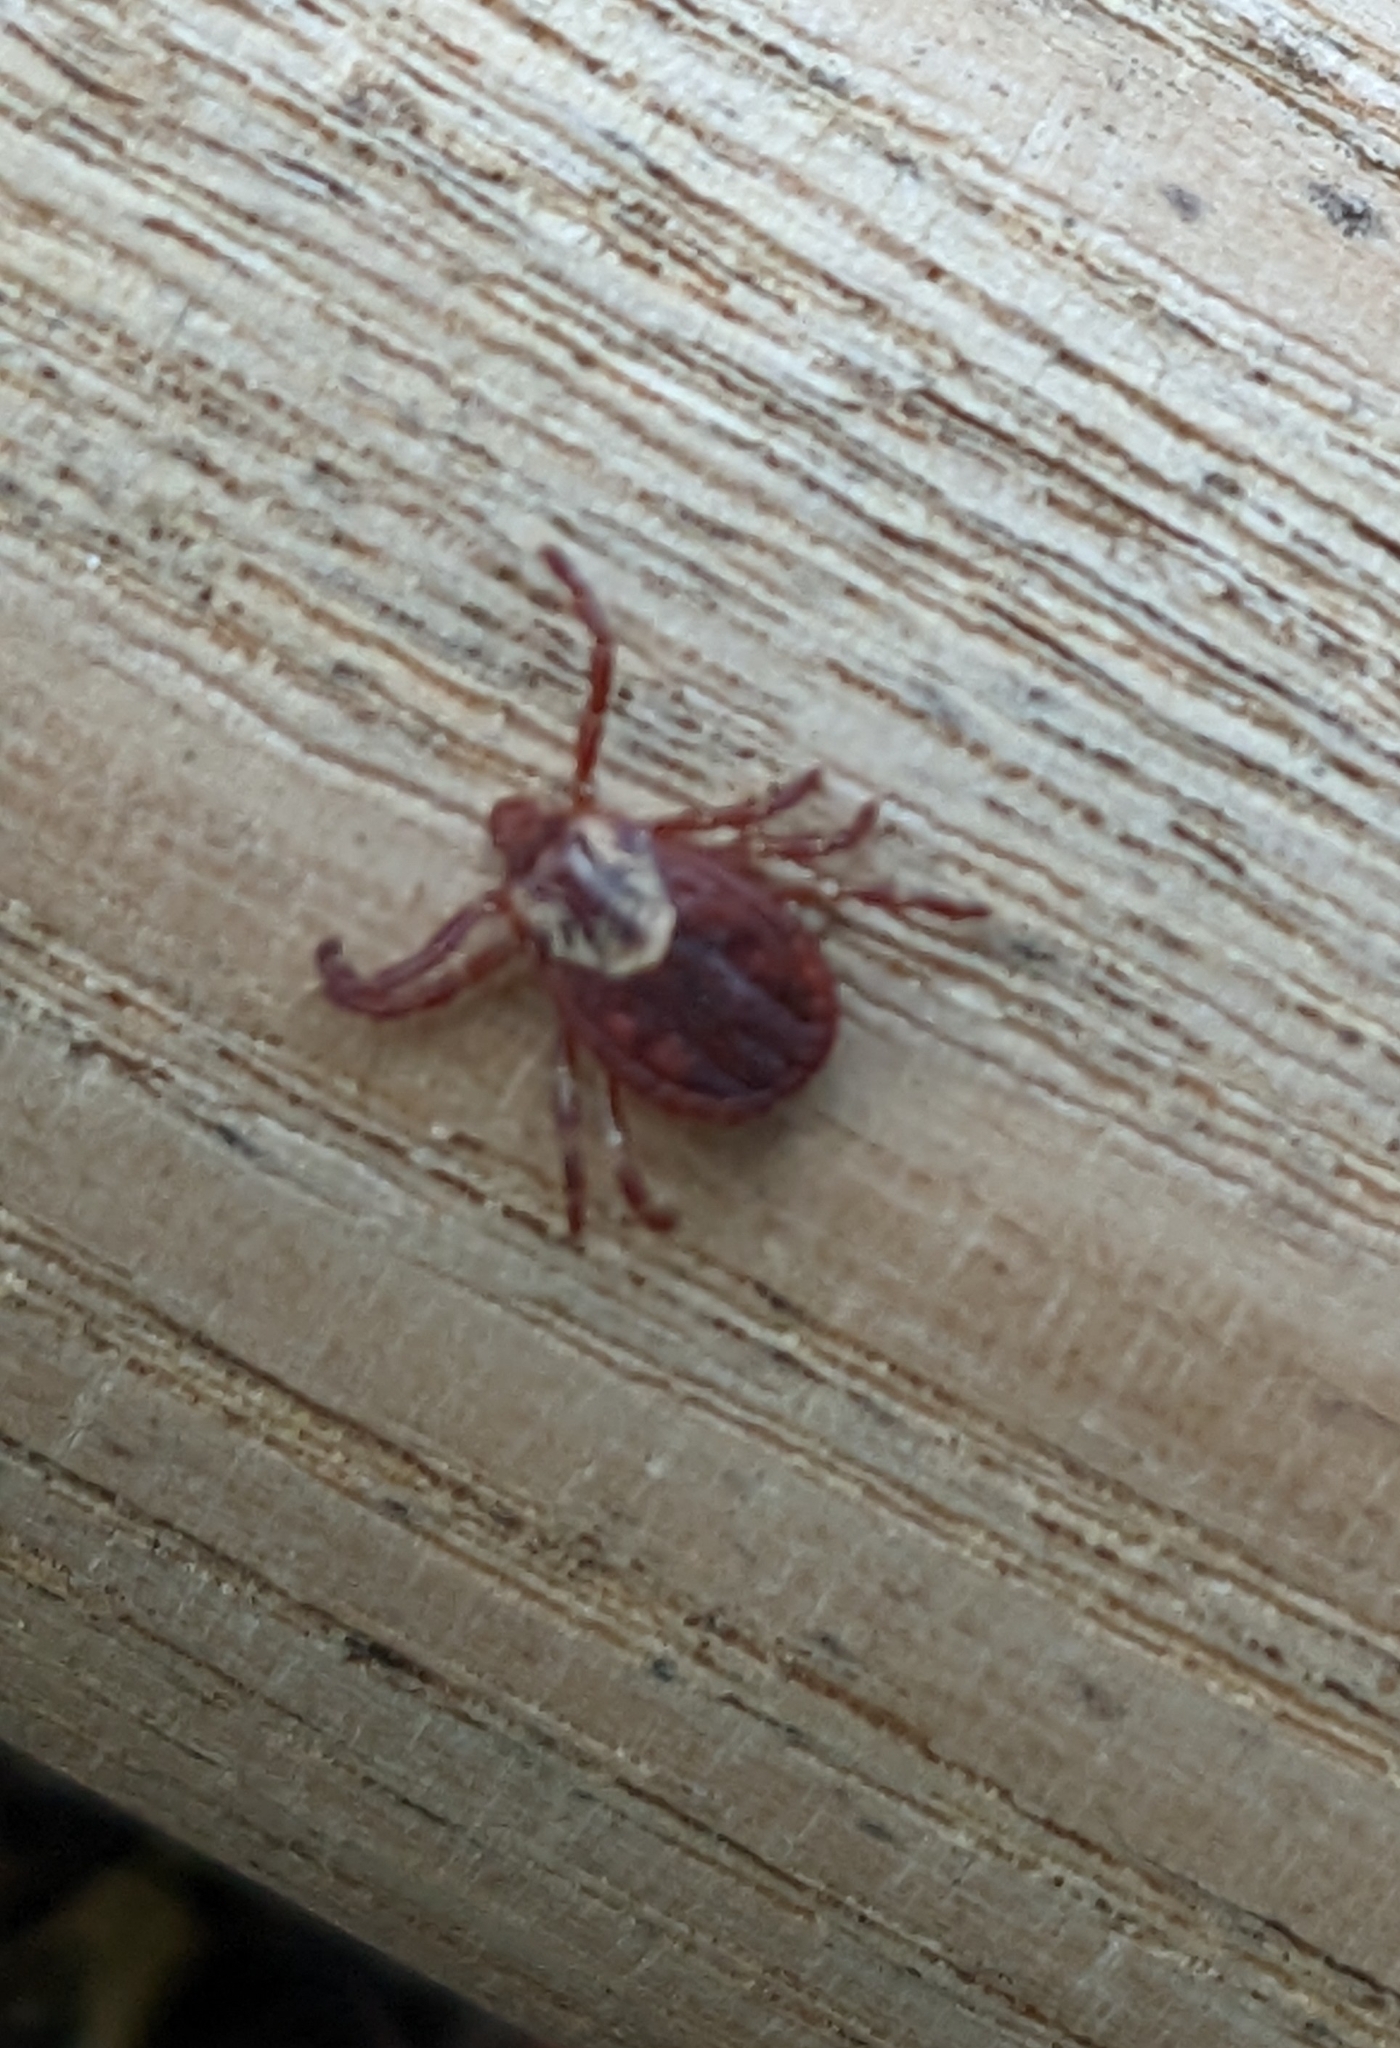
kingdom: Animalia
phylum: Arthropoda
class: Arachnida
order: Ixodida
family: Ixodidae
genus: Dermacentor
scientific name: Dermacentor variabilis
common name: American dog tick
